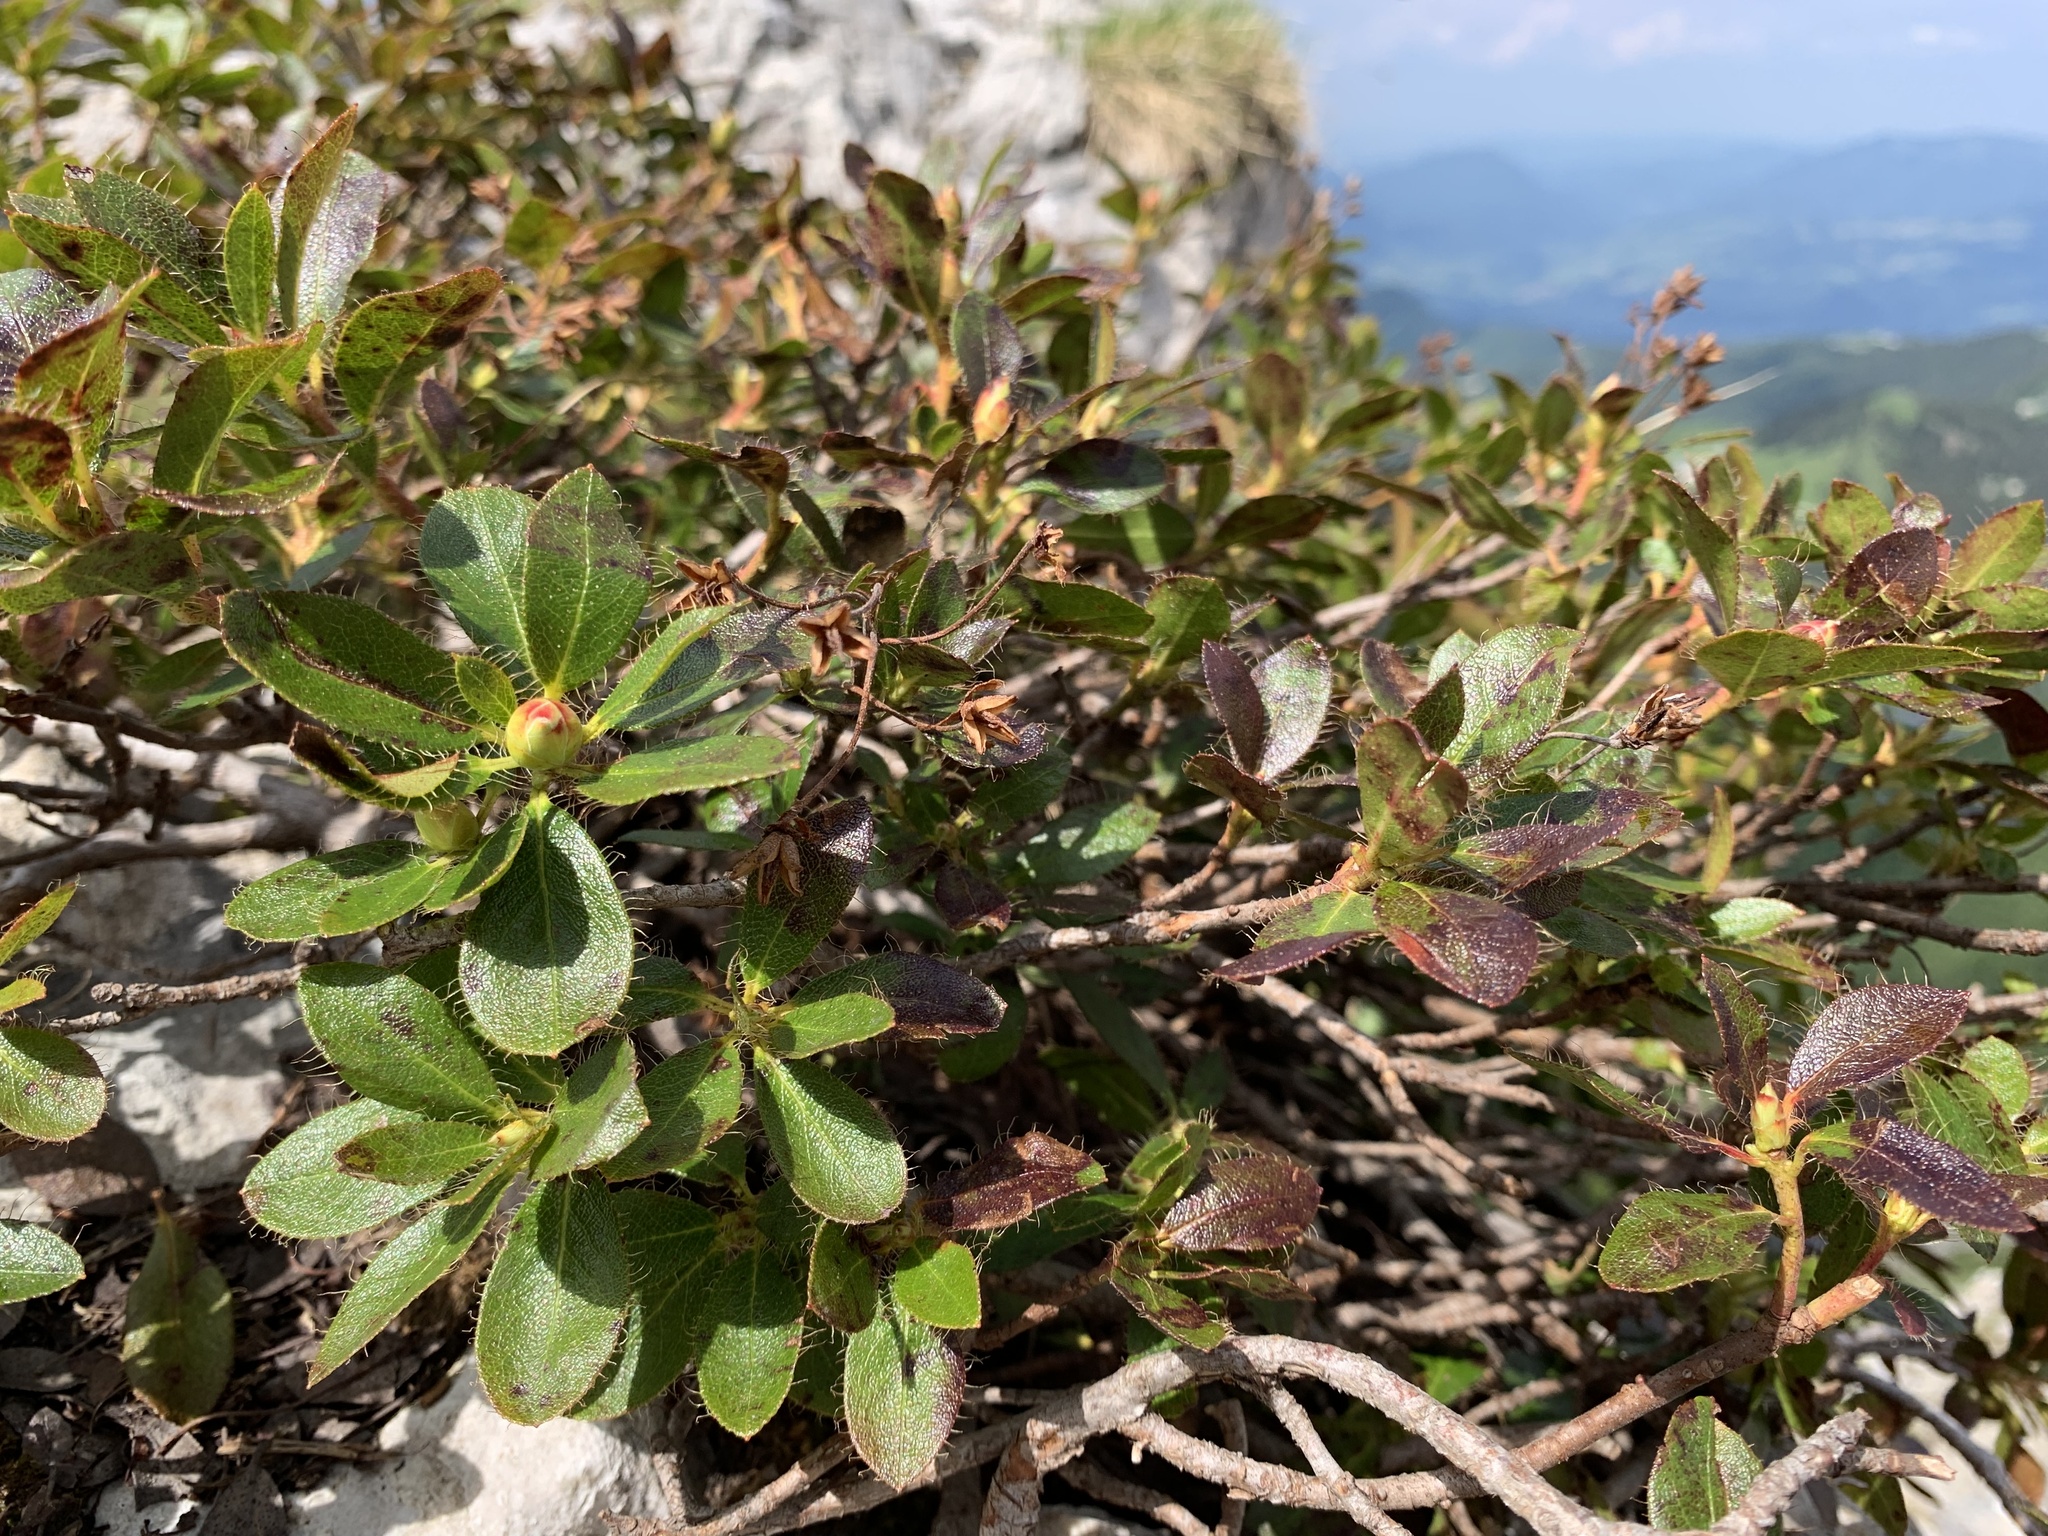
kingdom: Plantae
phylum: Tracheophyta
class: Magnoliopsida
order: Ericales
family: Ericaceae
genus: Rhododendron
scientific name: Rhododendron hirsutum
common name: Hairy alpenrose
